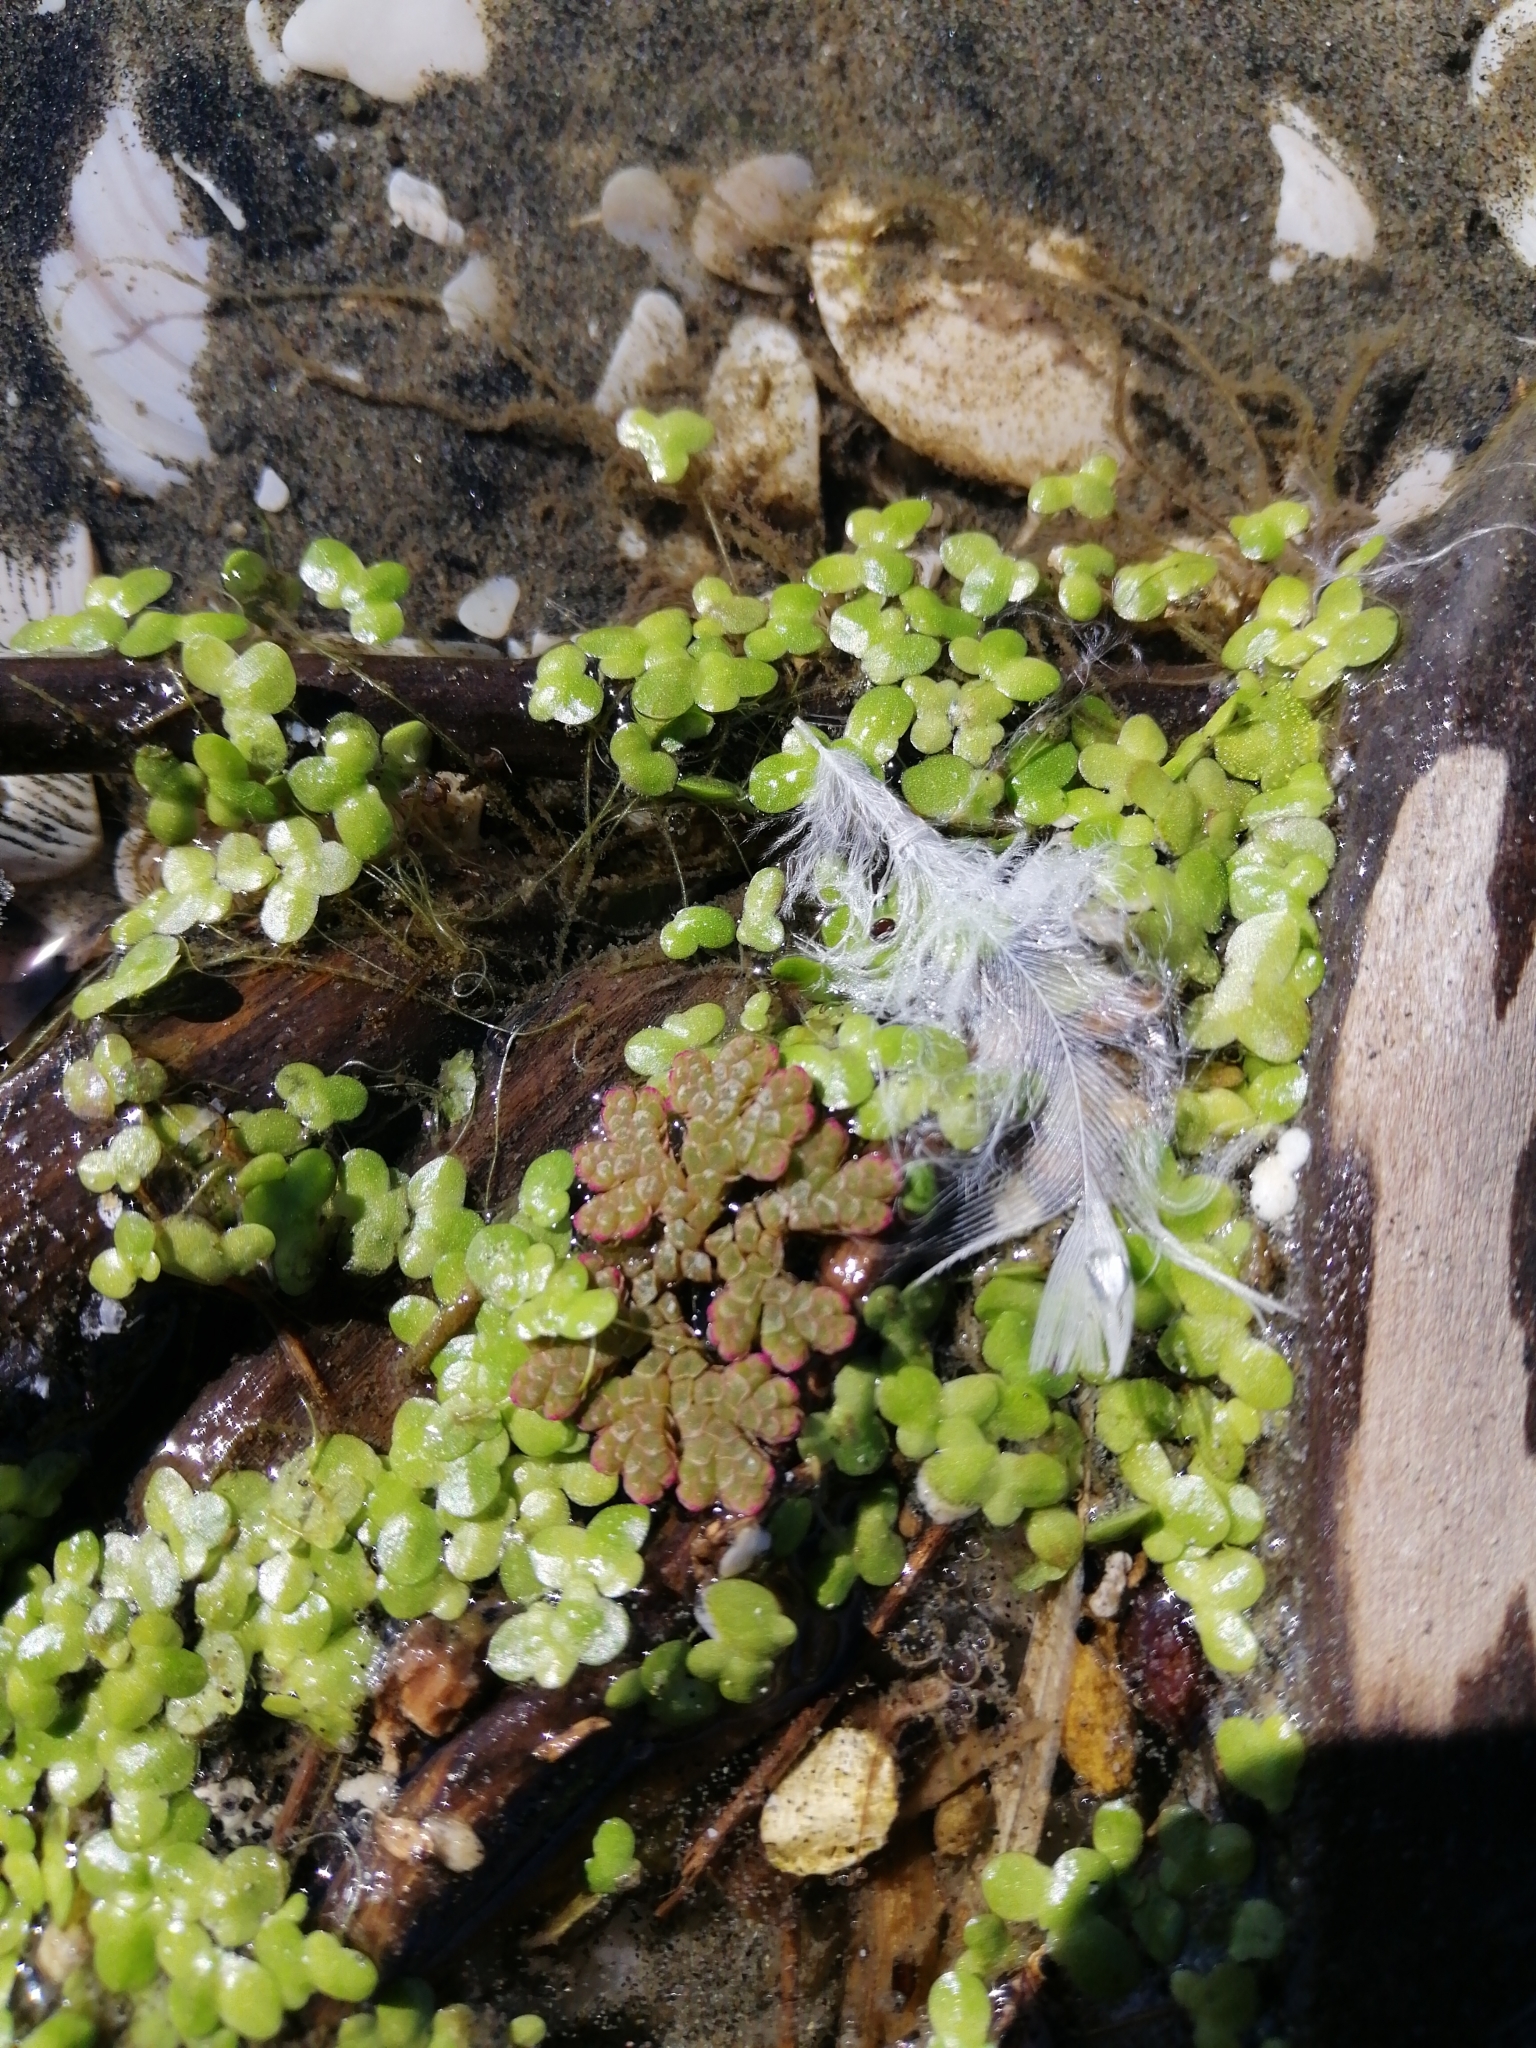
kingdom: Plantae
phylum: Tracheophyta
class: Polypodiopsida
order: Salviniales
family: Salviniaceae
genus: Azolla
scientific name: Azolla rubra
